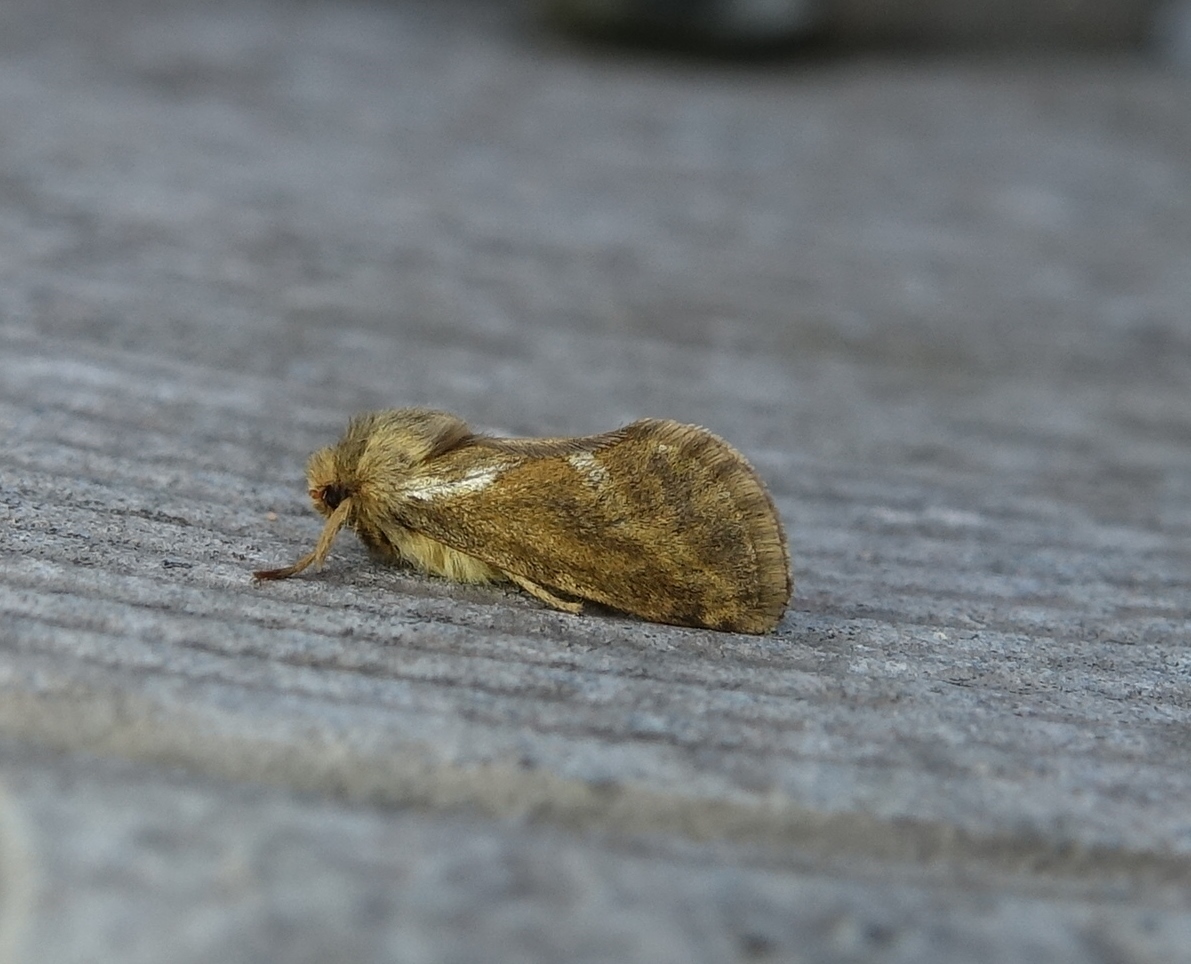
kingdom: Animalia
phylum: Arthropoda
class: Insecta
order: Lepidoptera
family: Hepialidae
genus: Korscheltellus
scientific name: Korscheltellus lupulina
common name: Common swift
